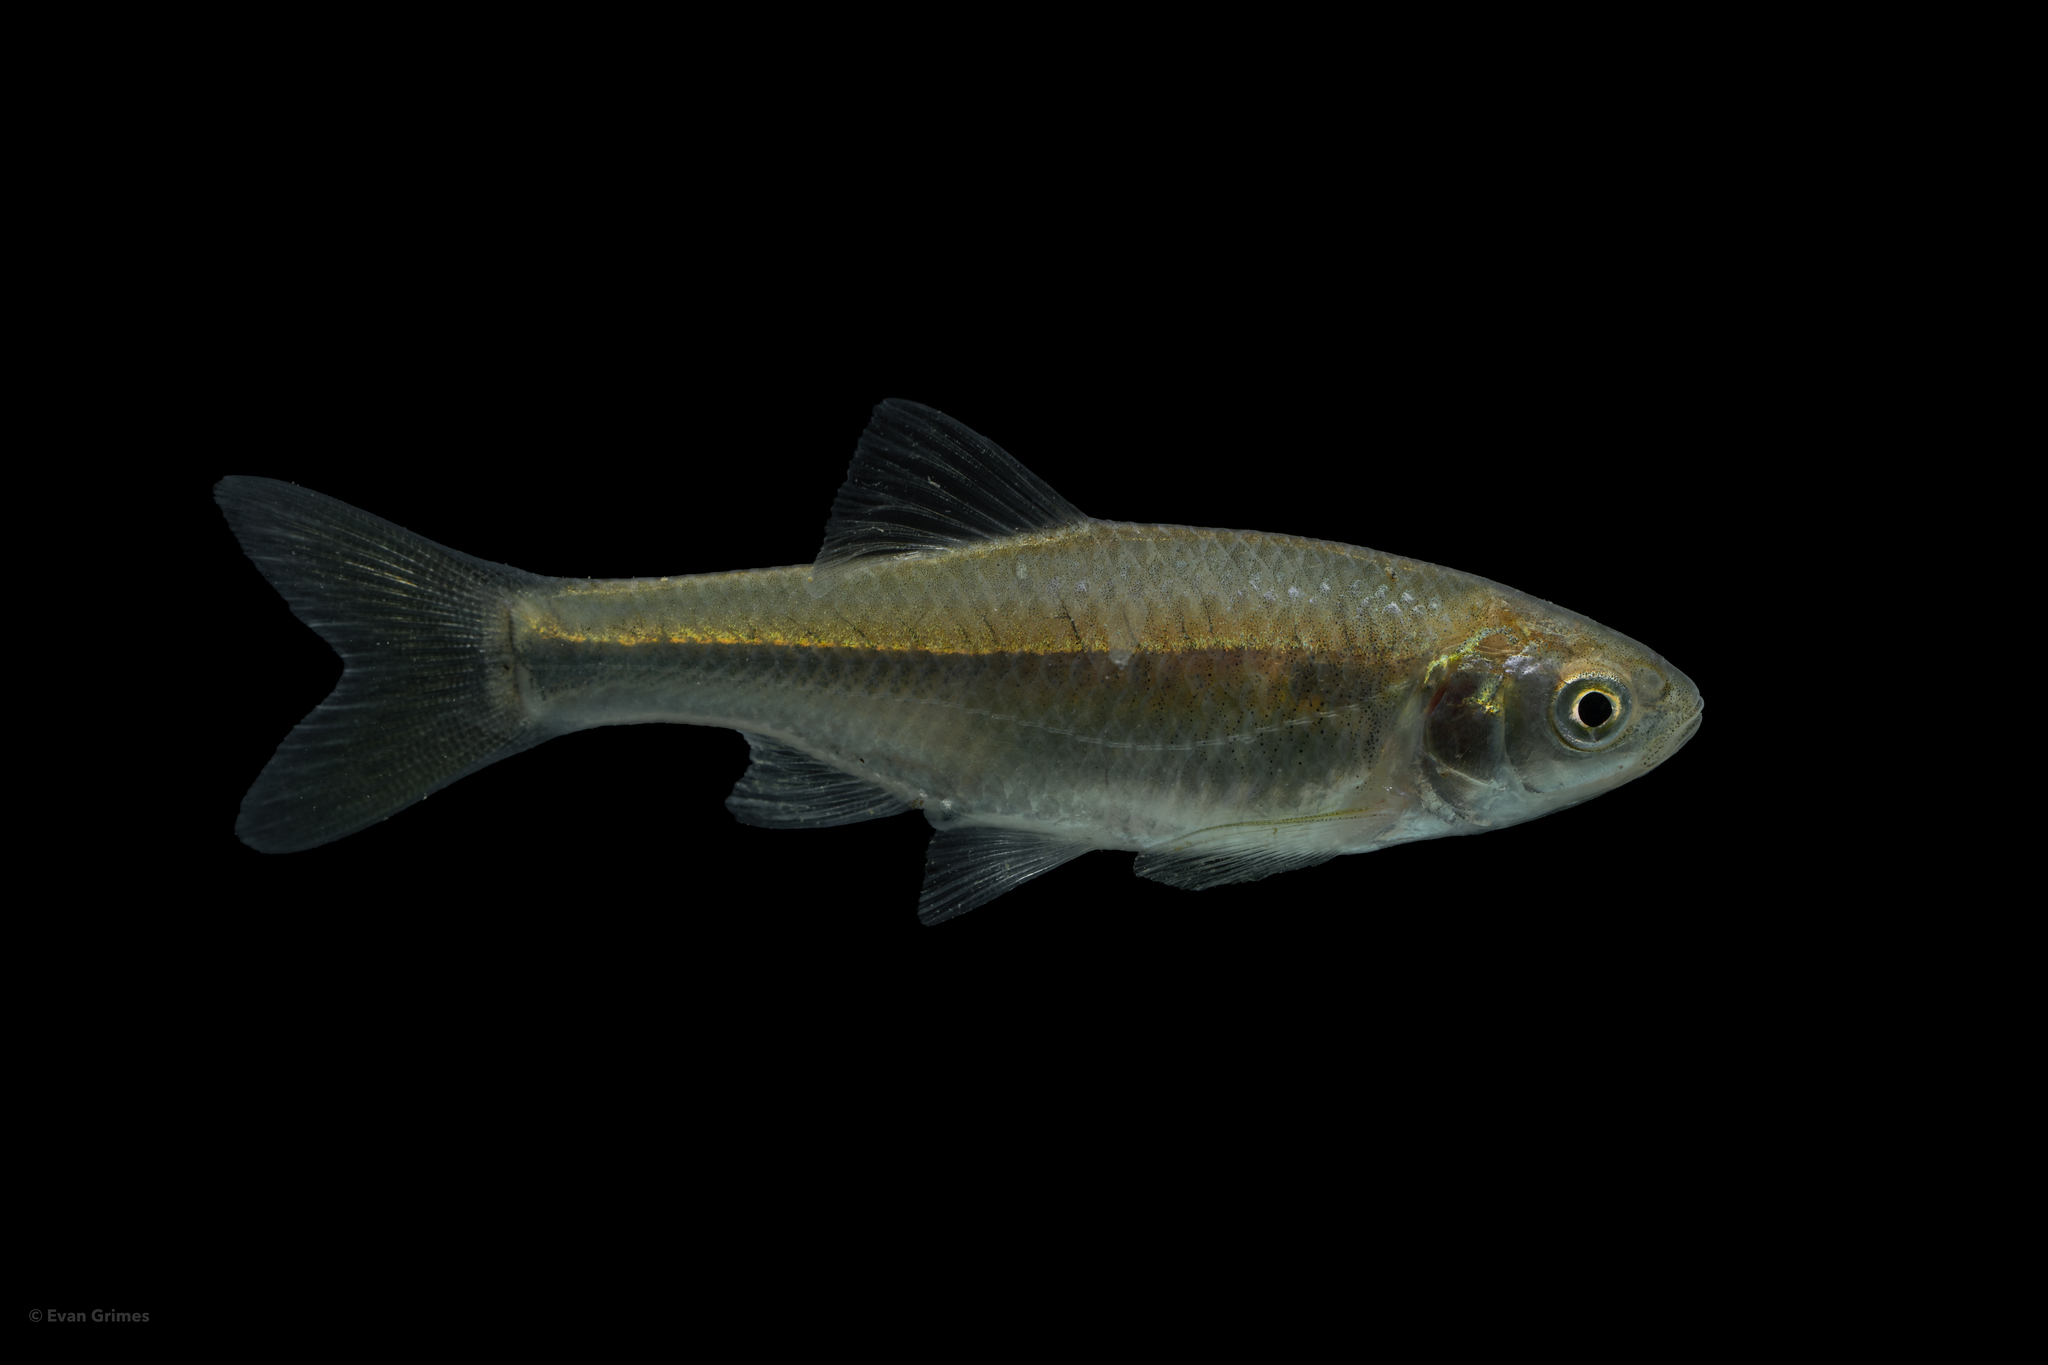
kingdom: Animalia
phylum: Chordata
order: Cypriniformes
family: Cyprinidae
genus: Cyprinella
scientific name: Cyprinella lutrensis
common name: Red shiner
